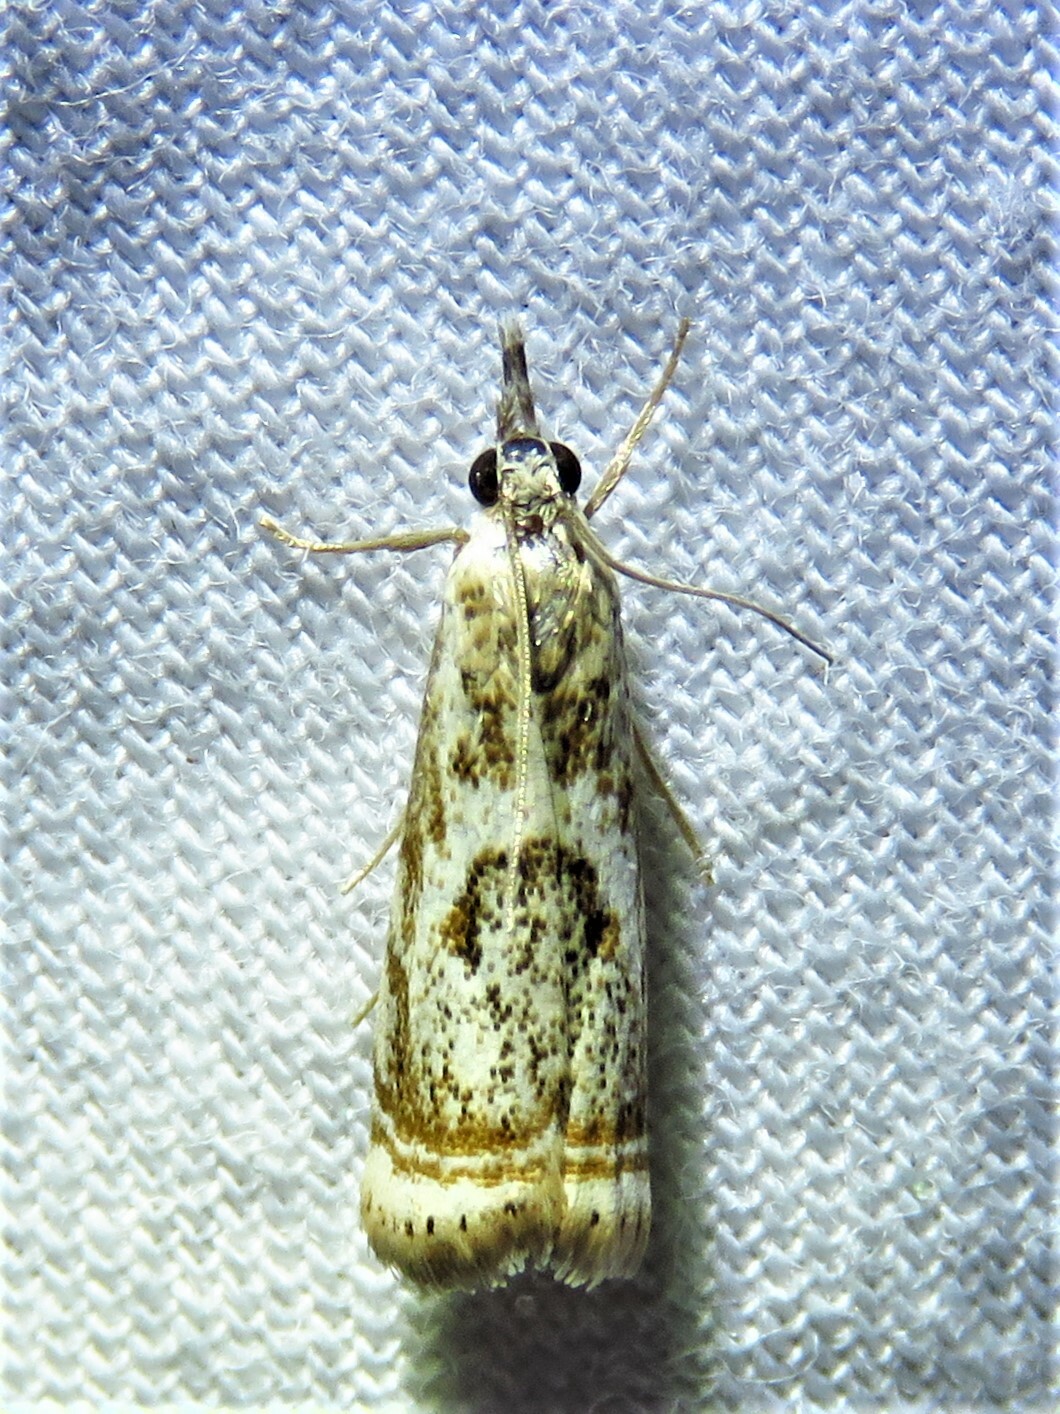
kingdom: Animalia
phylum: Arthropoda
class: Insecta
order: Lepidoptera
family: Crambidae
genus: Microcrambus
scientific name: Microcrambus elegans
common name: Elegant grass-veneer
